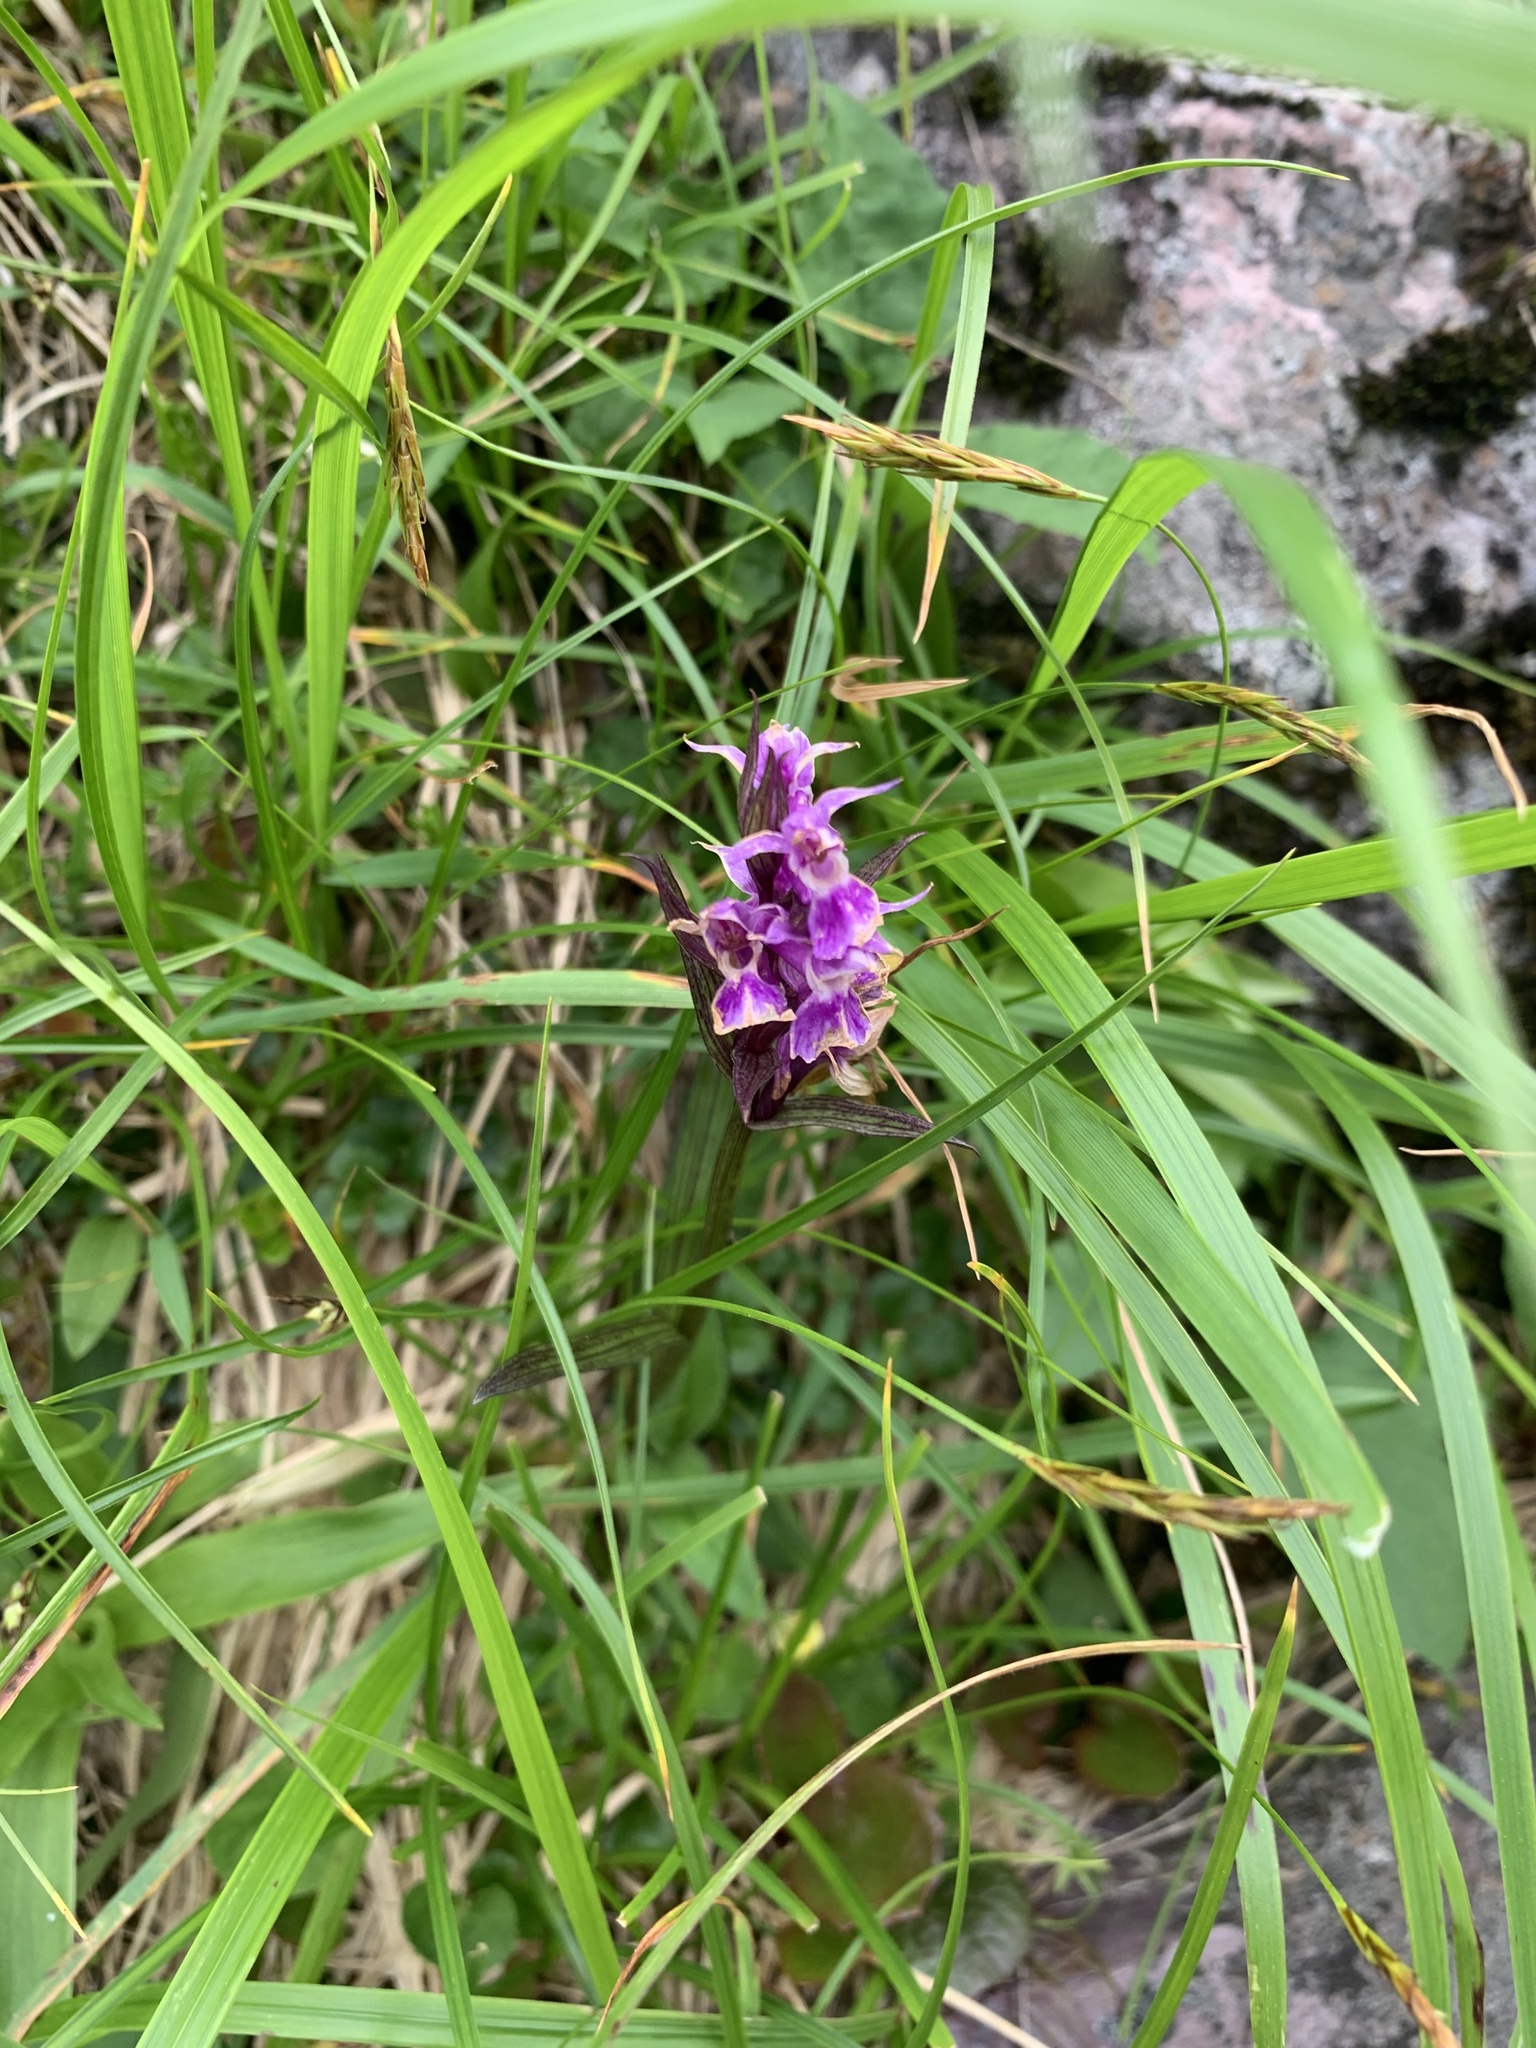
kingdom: Plantae
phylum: Tracheophyta
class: Liliopsida
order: Asparagales
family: Orchidaceae
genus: Dactylorhiza
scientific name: Dactylorhiza aristata
